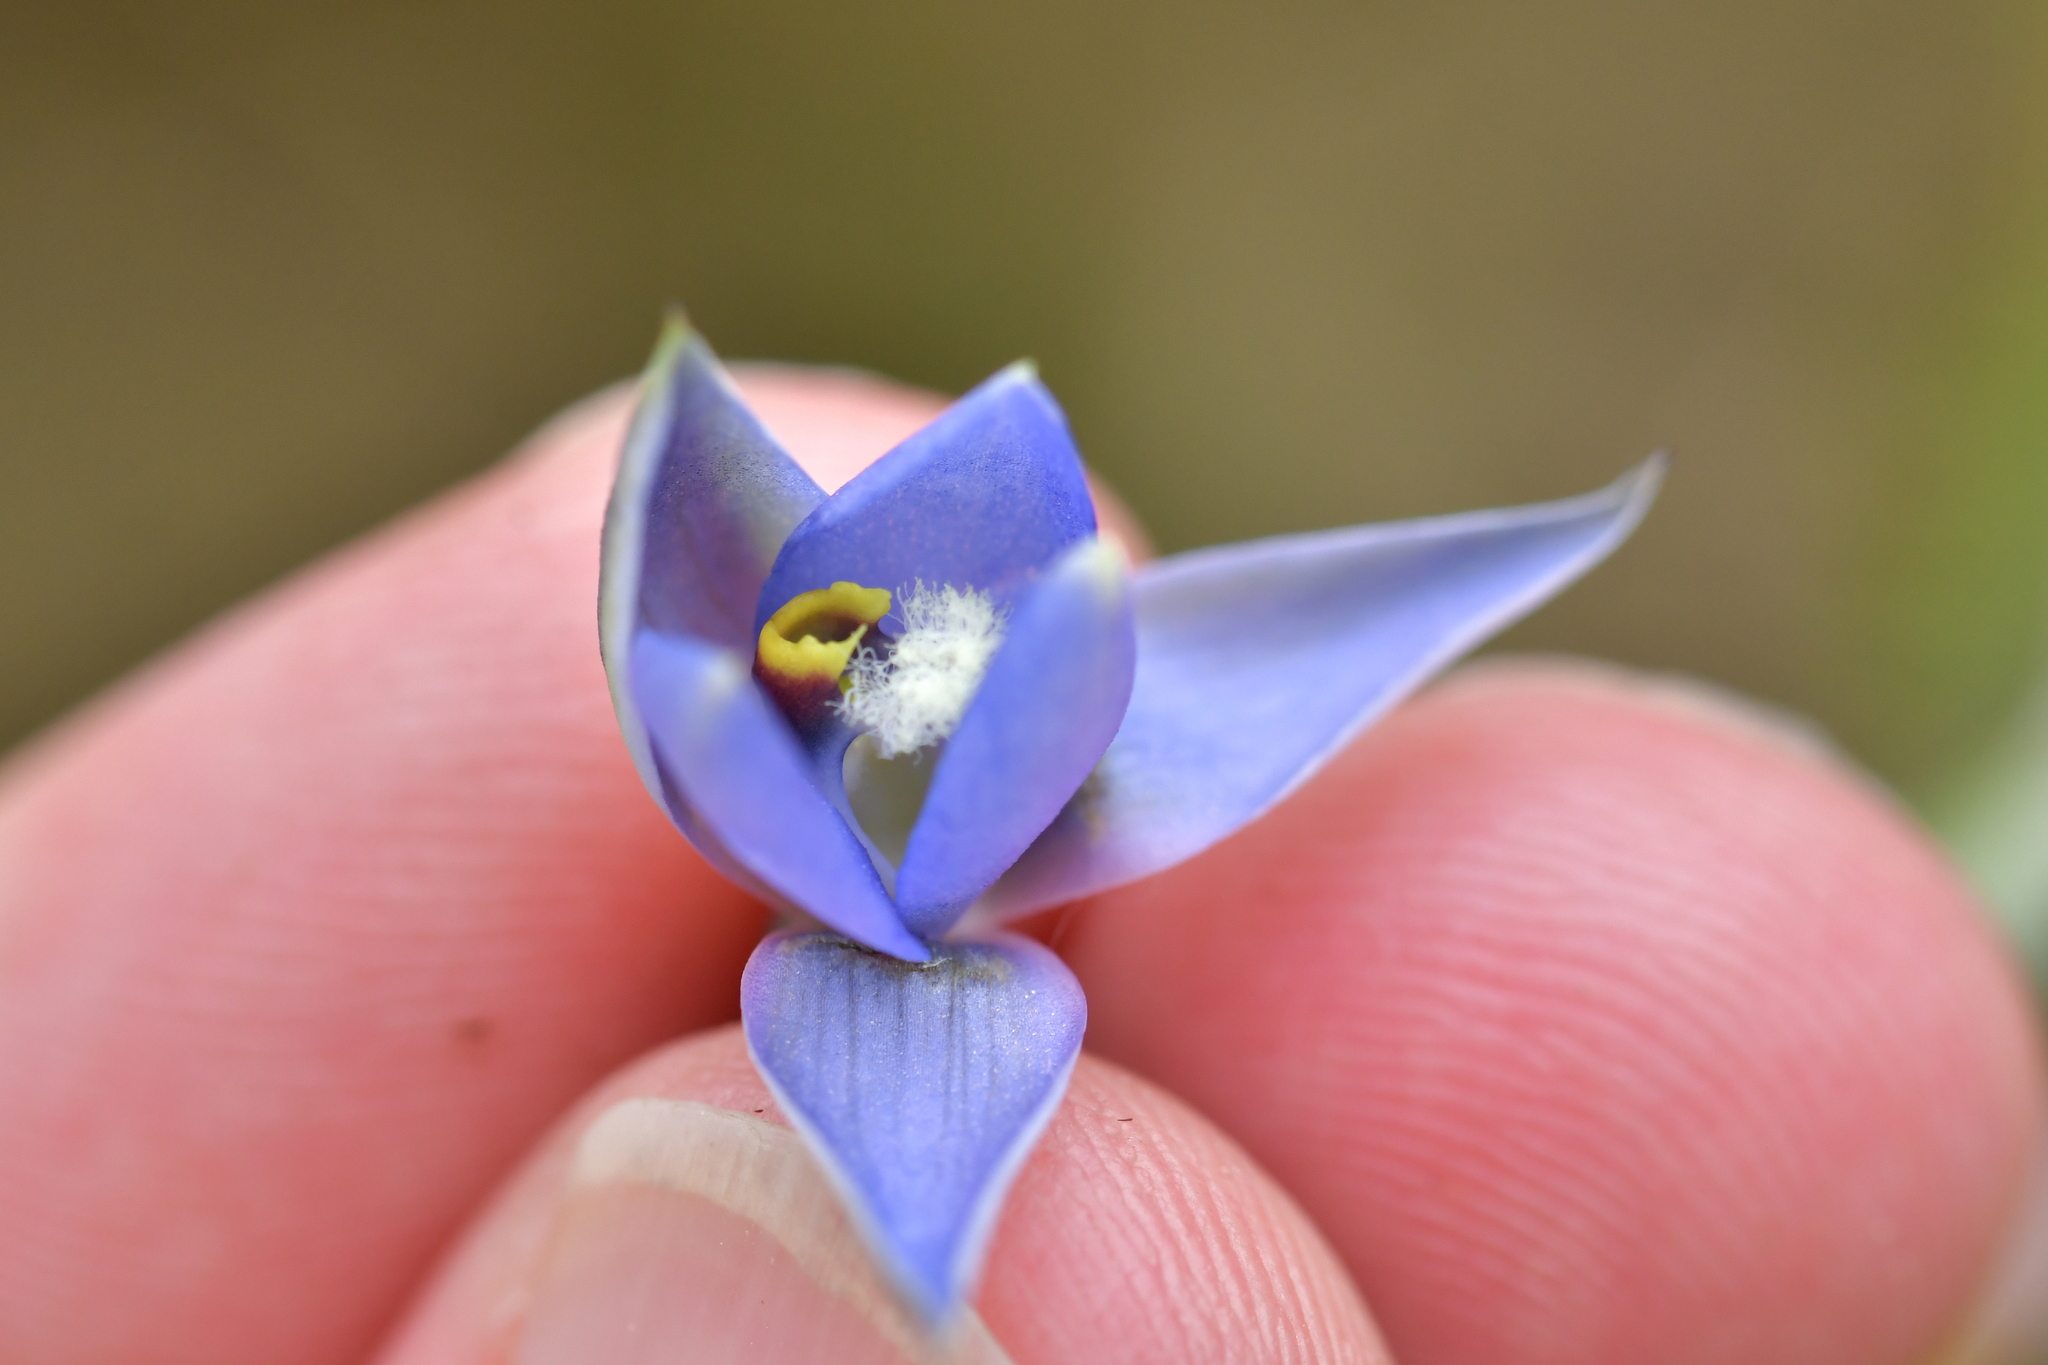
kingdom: Plantae
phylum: Tracheophyta
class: Liliopsida
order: Asparagales
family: Orchidaceae
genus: Thelymitra
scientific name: Thelymitra hatchii
